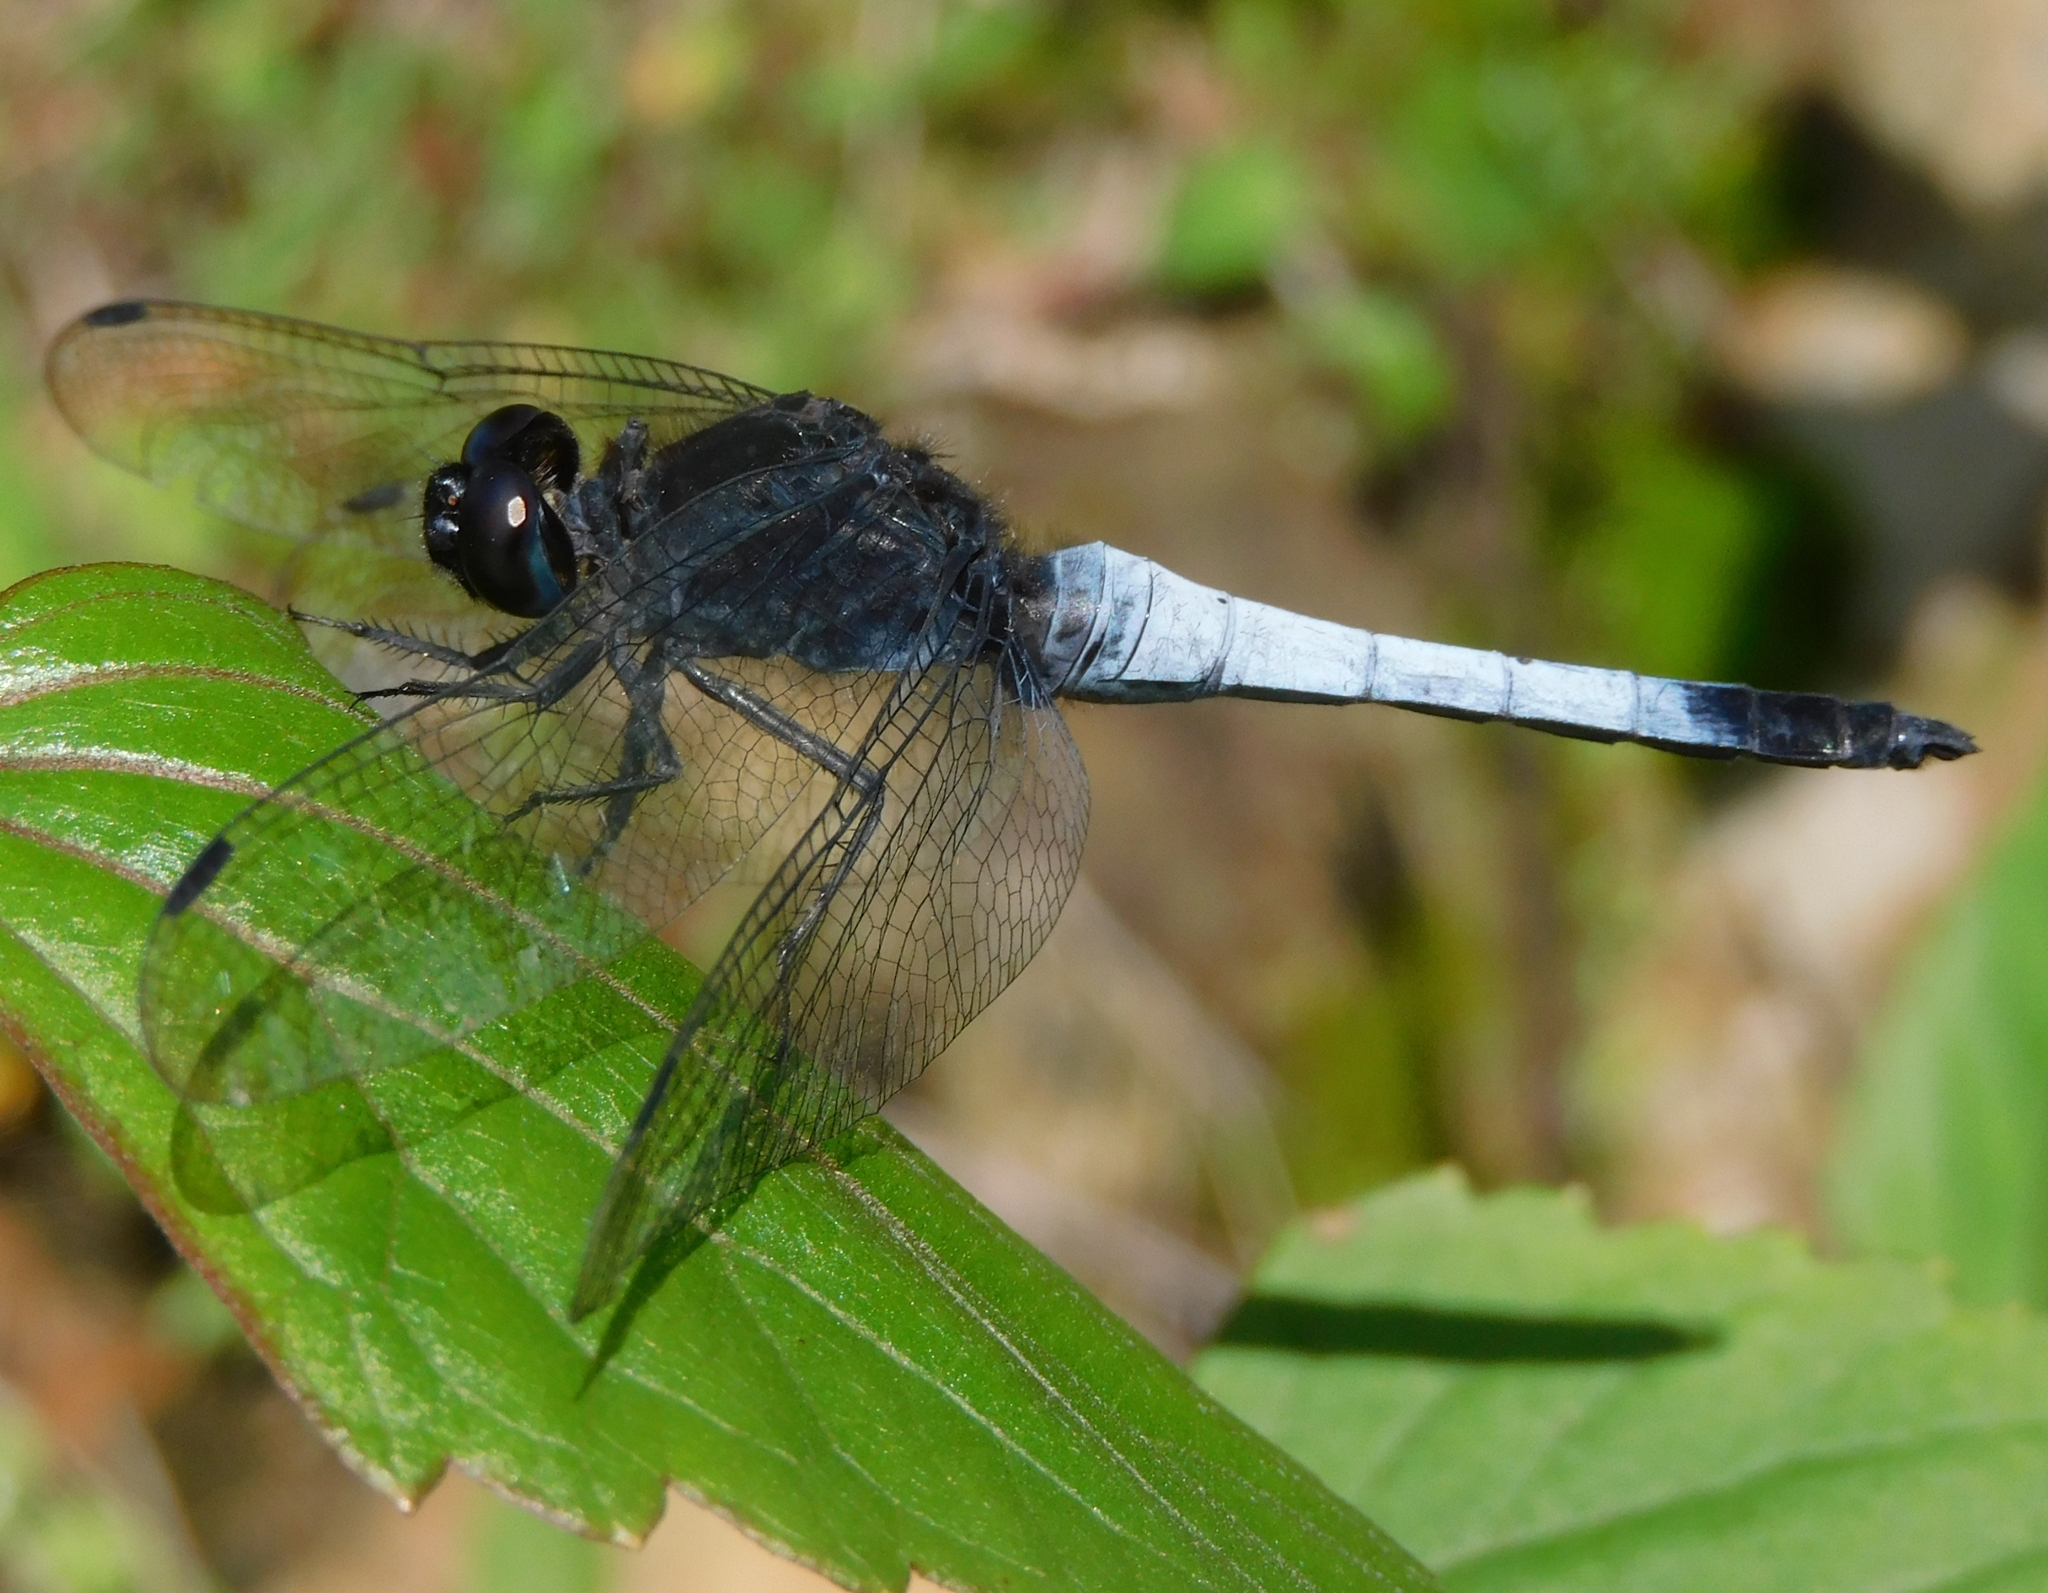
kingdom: Animalia
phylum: Arthropoda
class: Insecta
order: Odonata
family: Libellulidae
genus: Orthetrum
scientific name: Orthetrum triangulare
